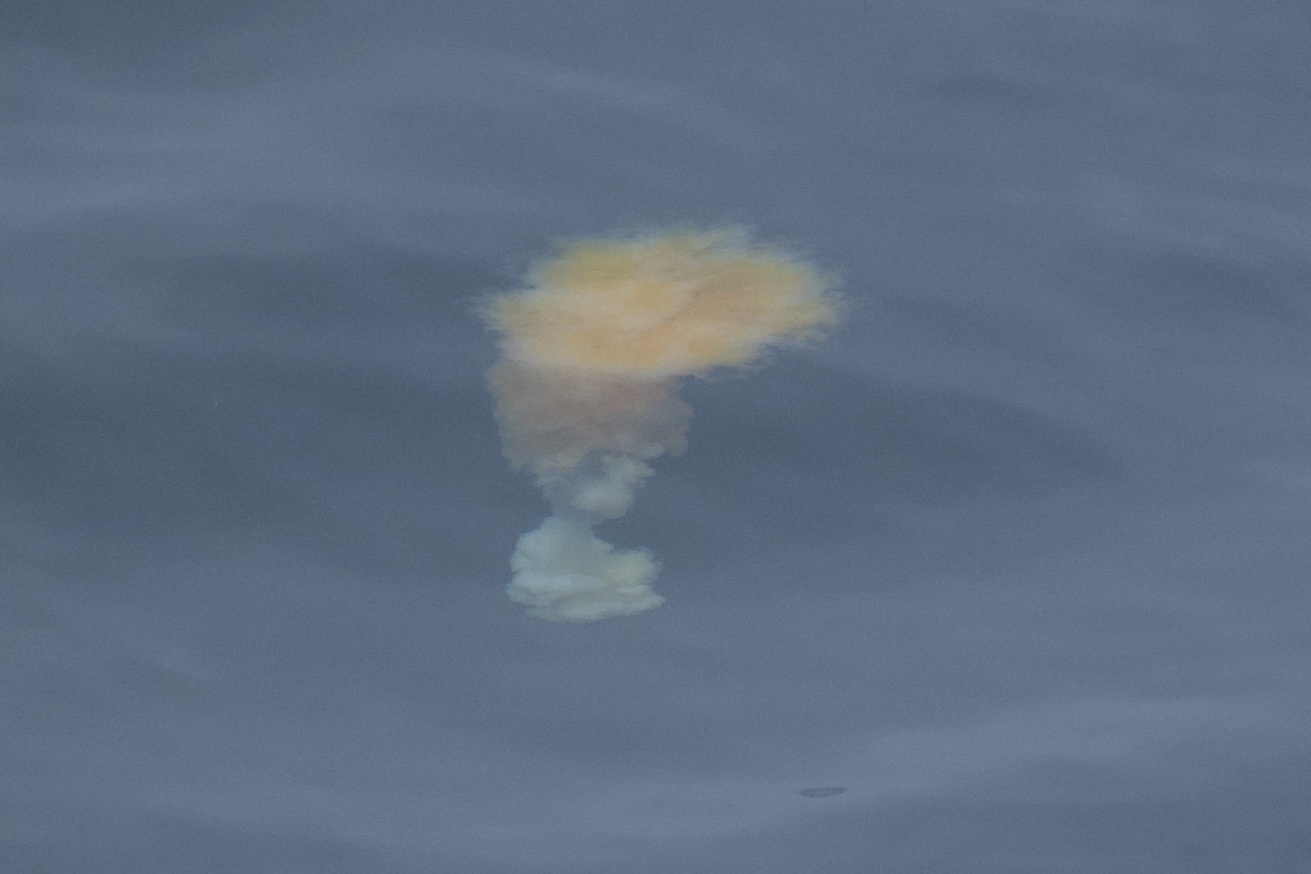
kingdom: Animalia
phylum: Cnidaria
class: Scyphozoa
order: Semaeostomeae
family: Phacellophoridae
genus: Phacellophora
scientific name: Phacellophora camtschatica
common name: Fried-egg jellyfish
